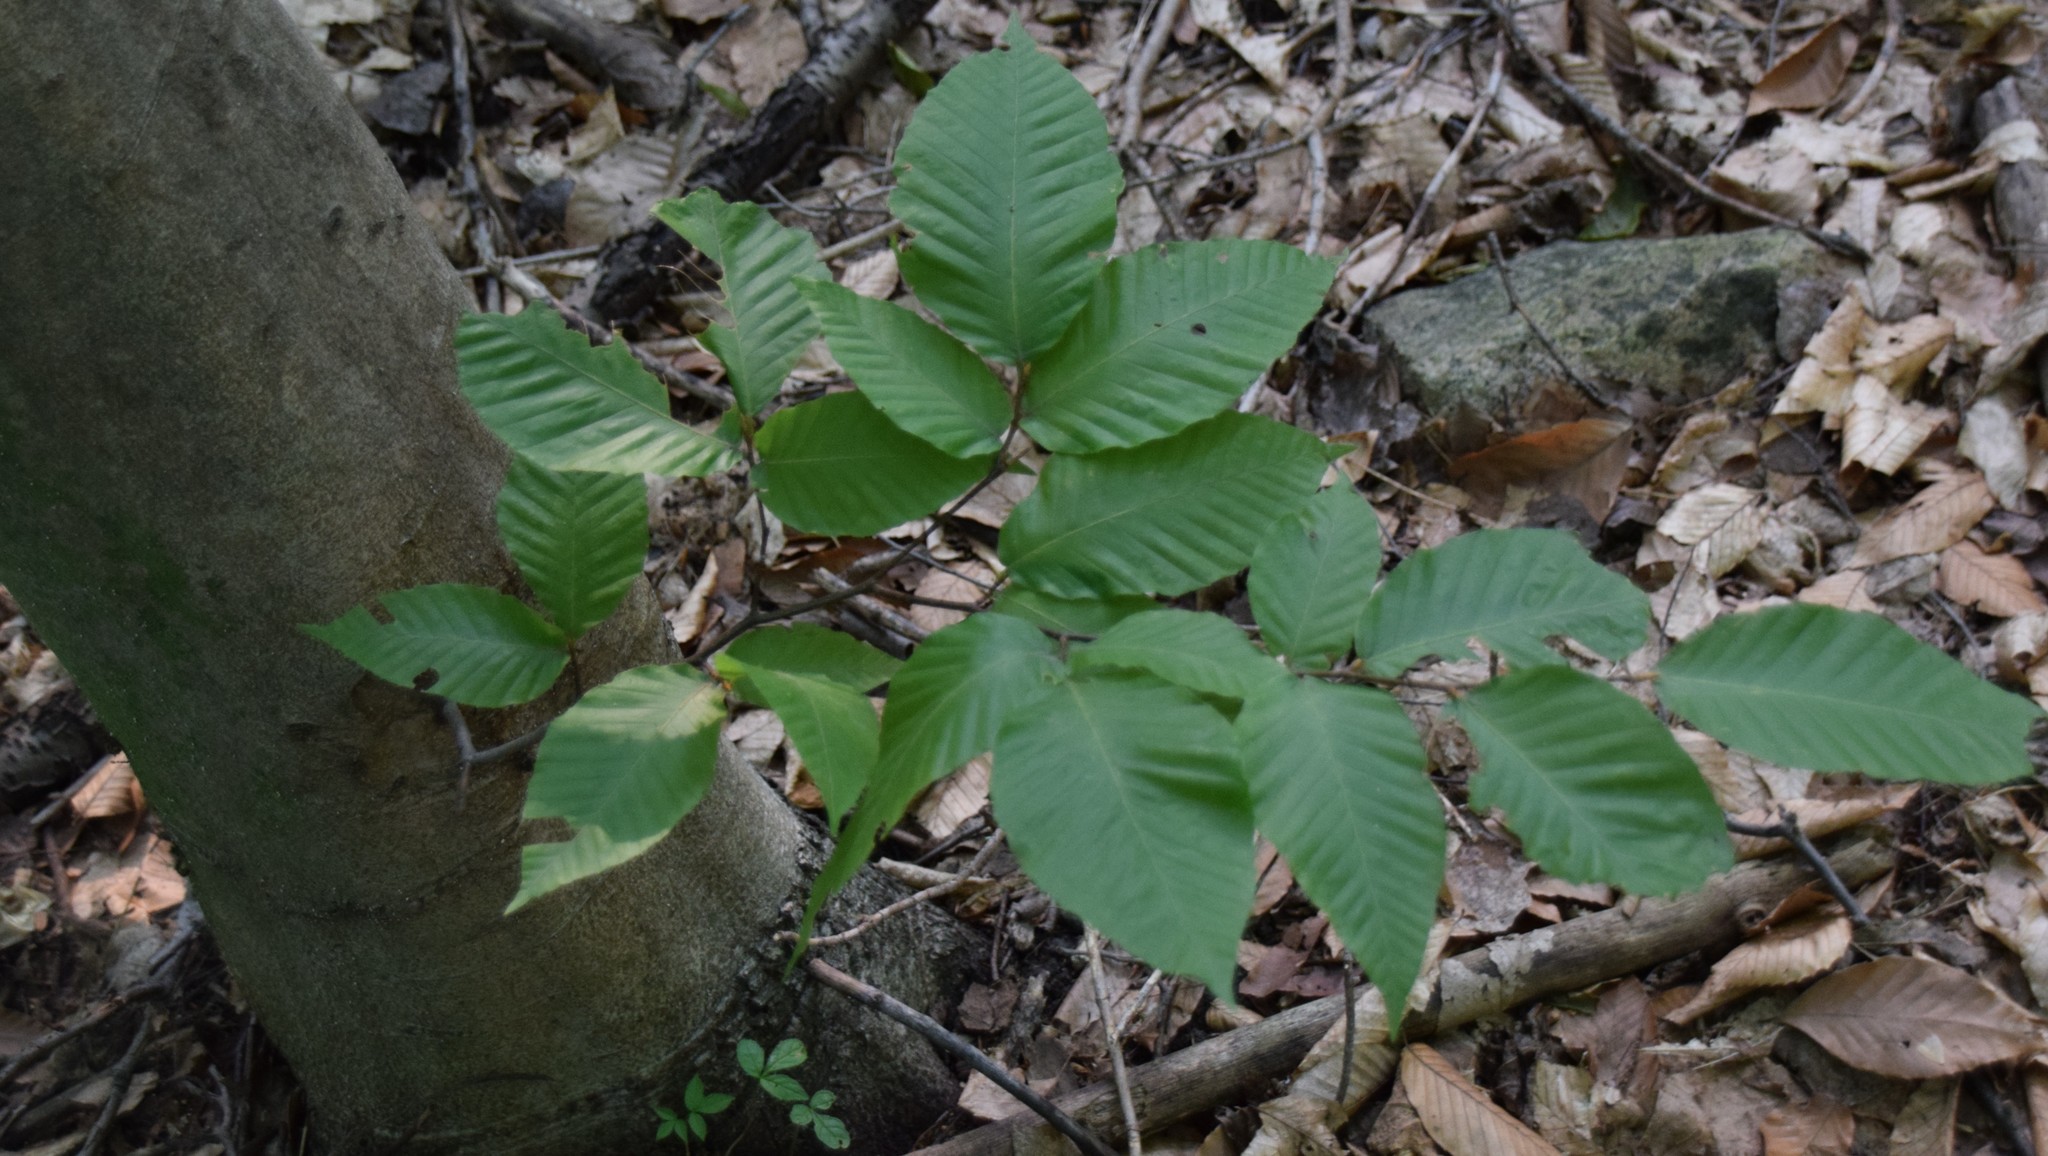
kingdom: Plantae
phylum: Tracheophyta
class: Magnoliopsida
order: Fagales
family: Fagaceae
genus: Fagus
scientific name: Fagus grandifolia
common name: American beech
